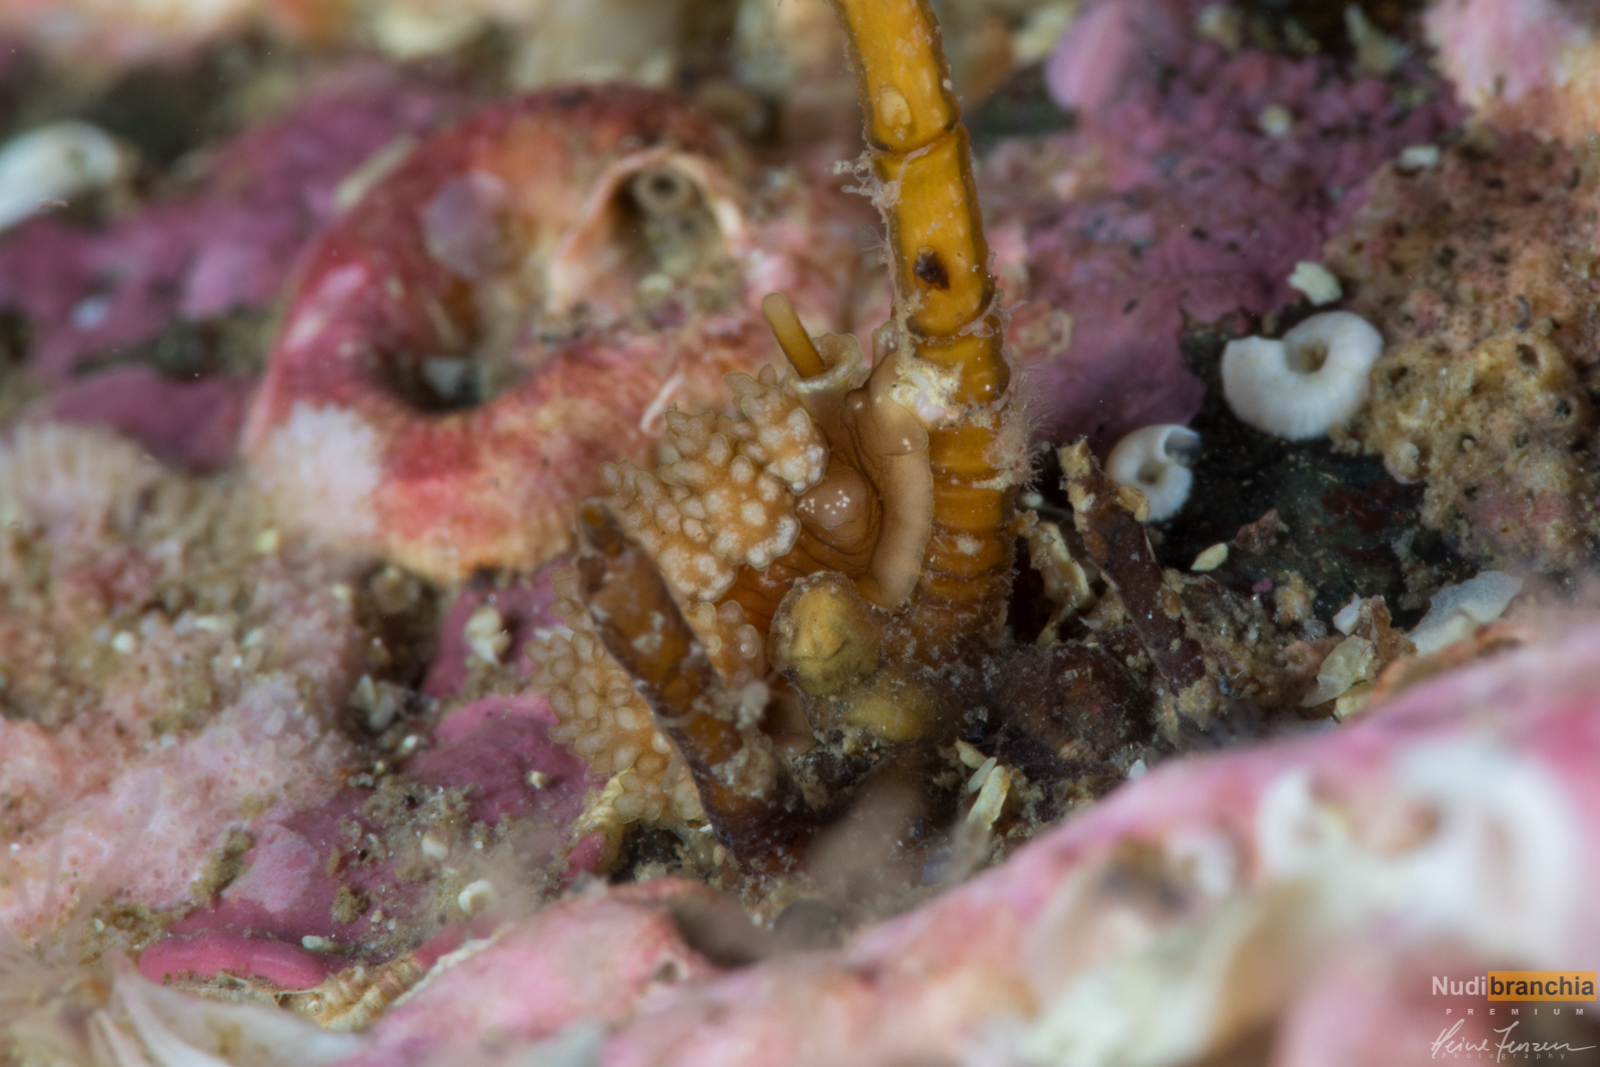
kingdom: Animalia
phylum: Mollusca
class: Gastropoda
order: Nudibranchia
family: Dotidae
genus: Doto
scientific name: Doto fragilis
